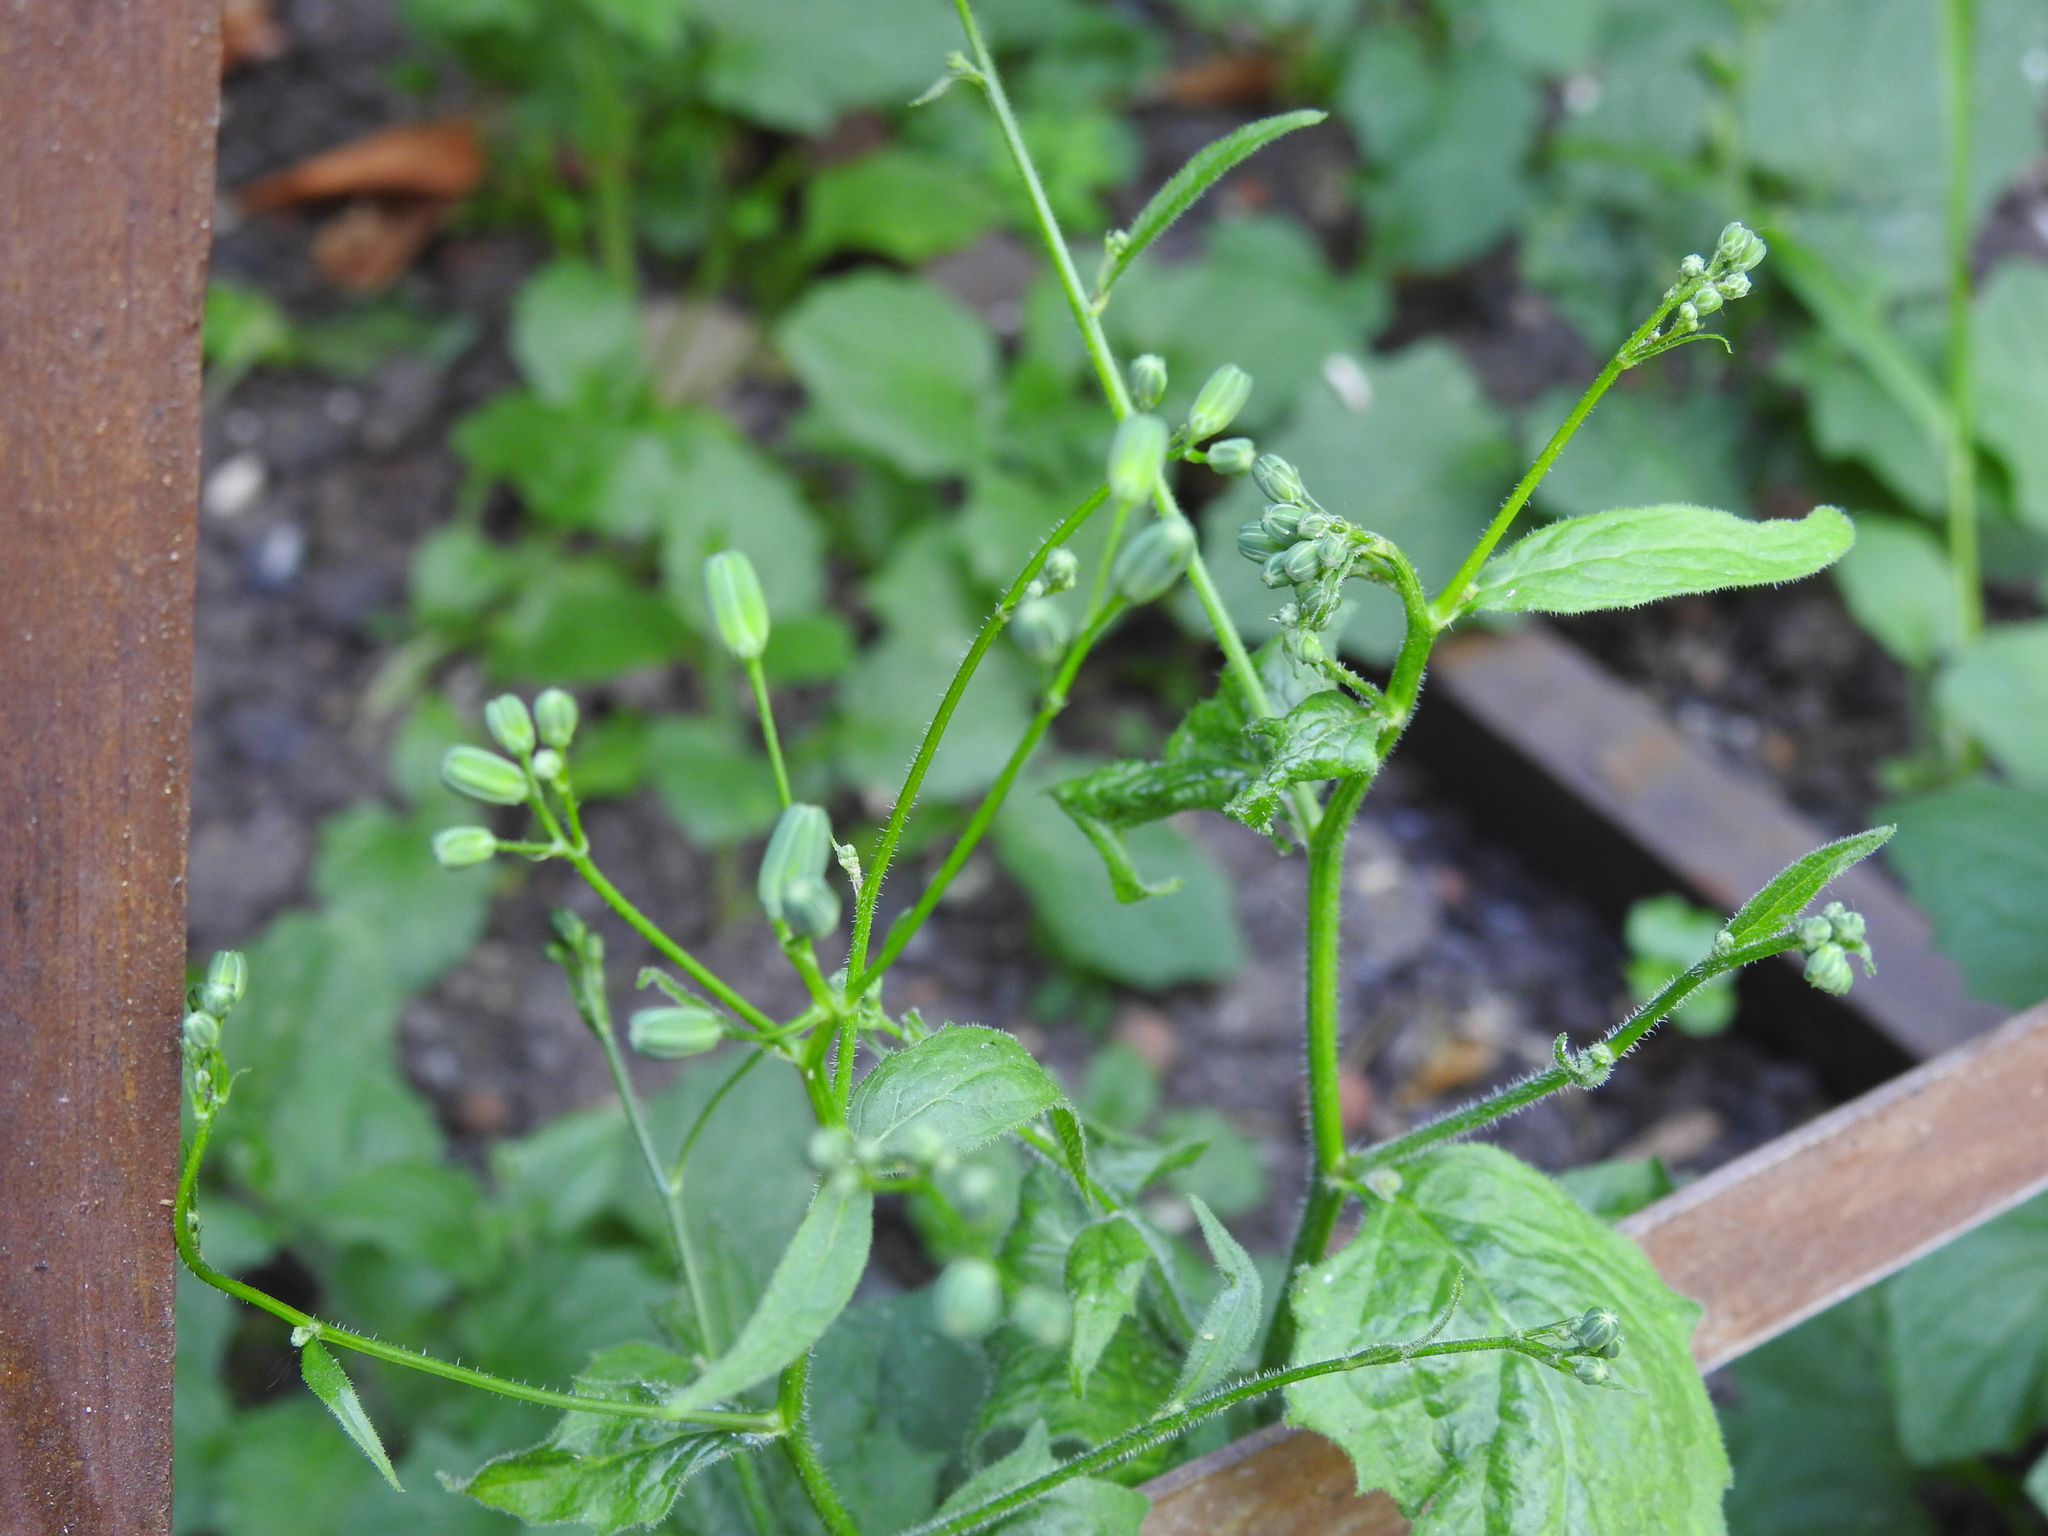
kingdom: Plantae
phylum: Tracheophyta
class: Magnoliopsida
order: Asterales
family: Asteraceae
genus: Lapsana
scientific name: Lapsana communis
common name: Nipplewort
